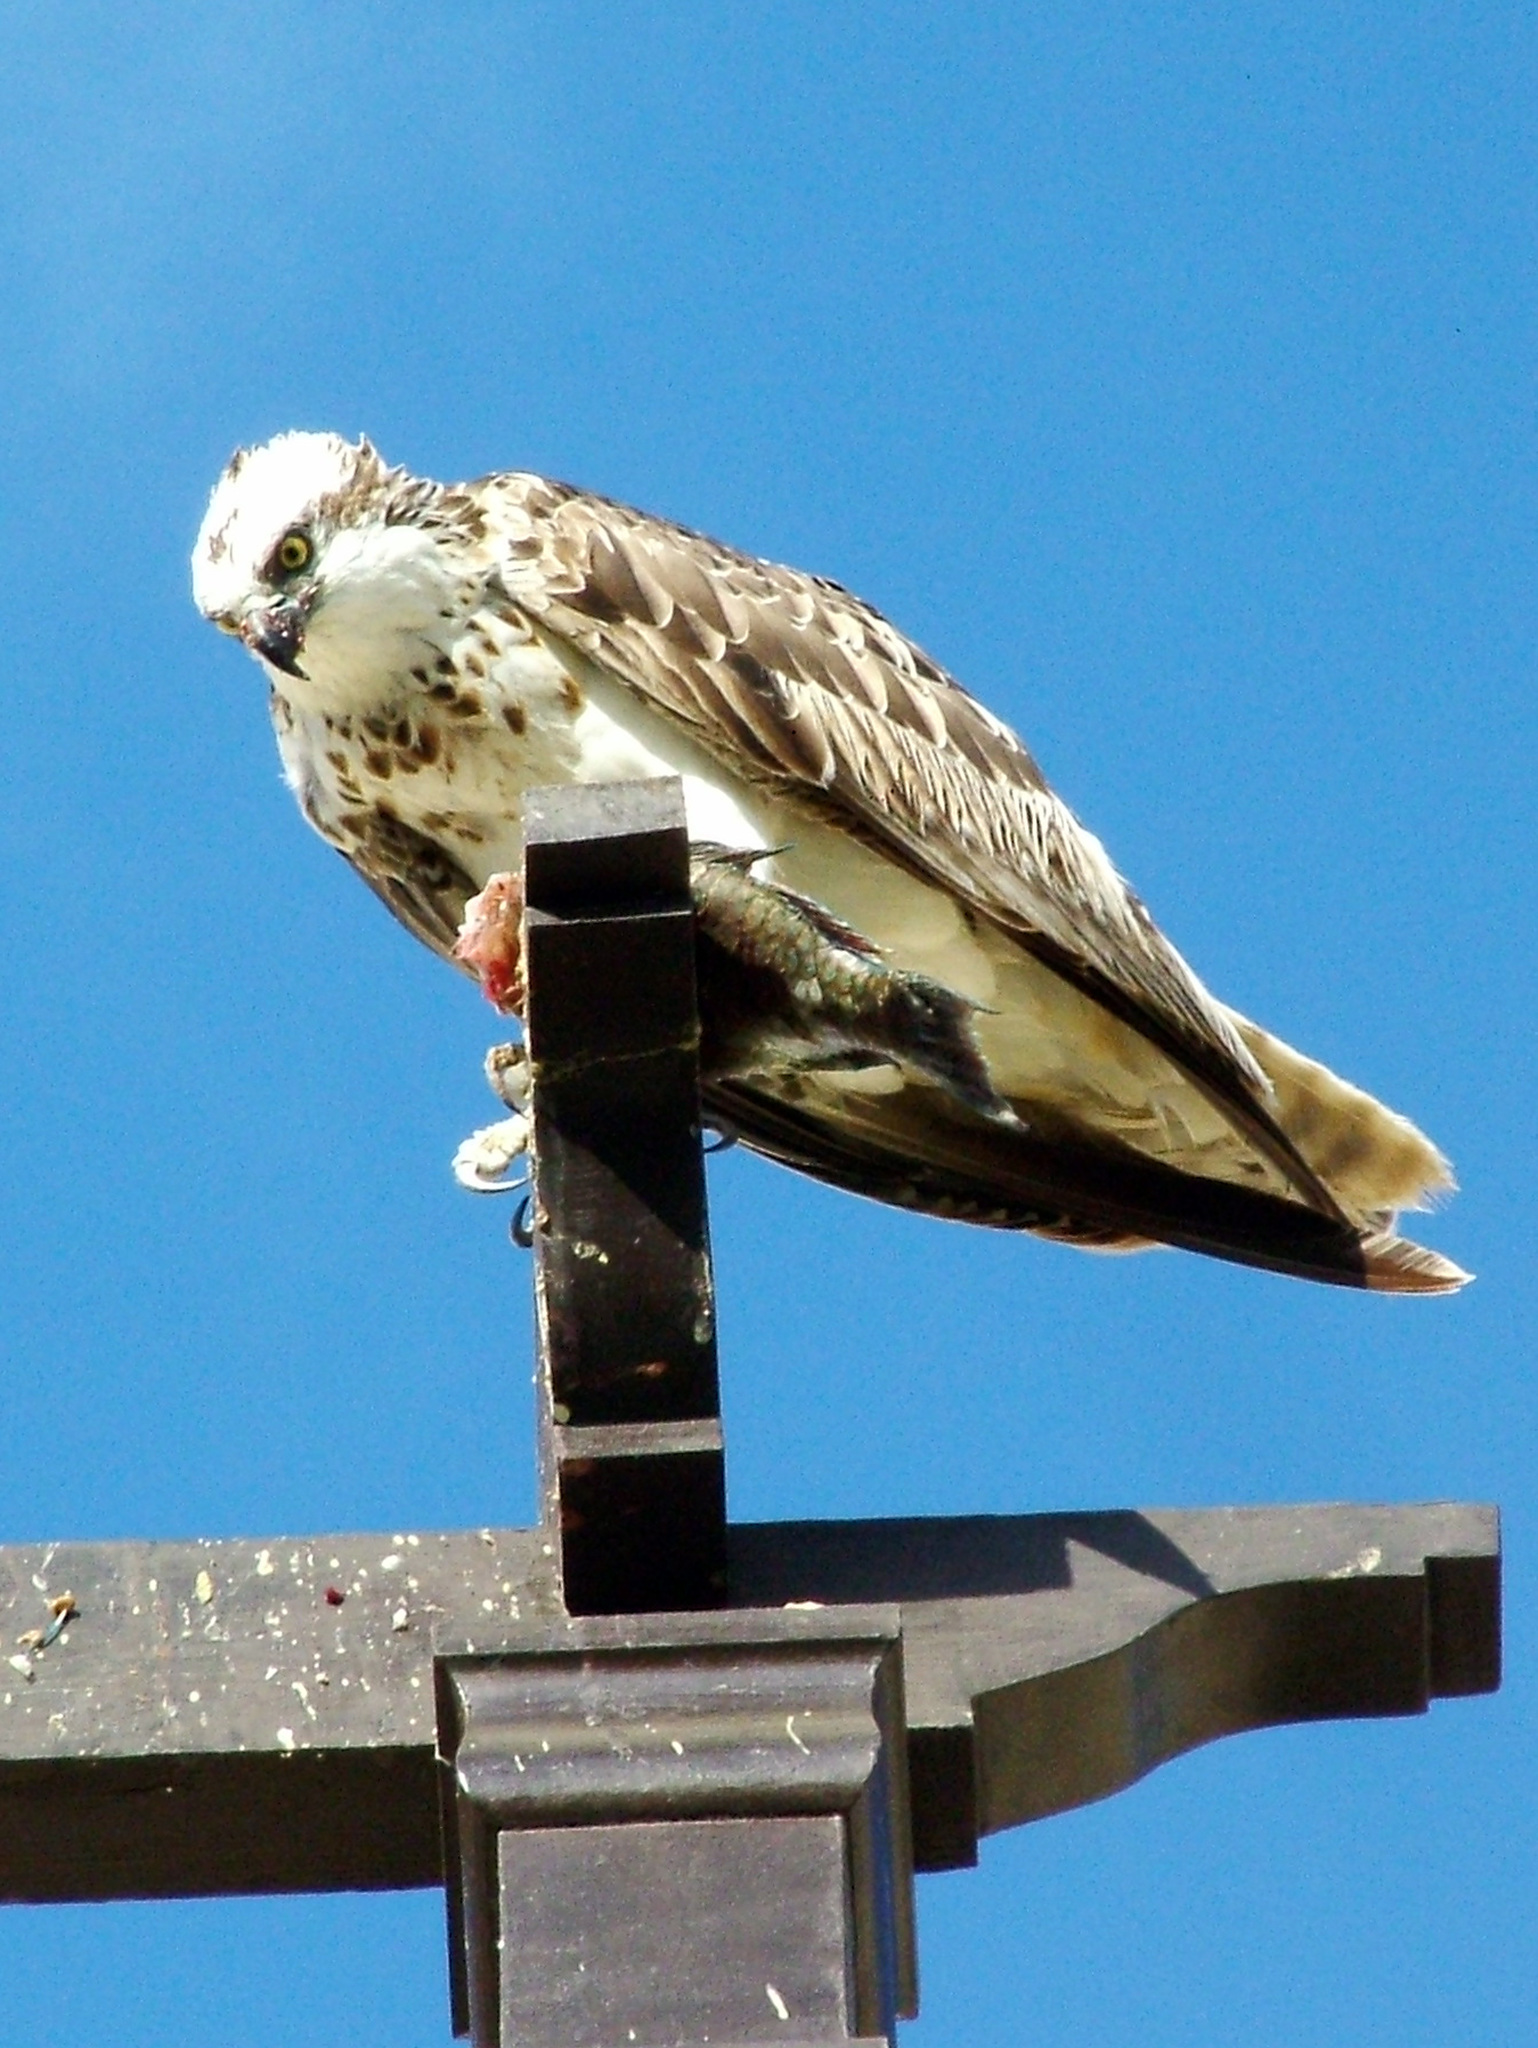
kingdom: Animalia
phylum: Chordata
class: Aves
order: Accipitriformes
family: Pandionidae
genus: Pandion
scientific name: Pandion haliaetus
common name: Osprey
